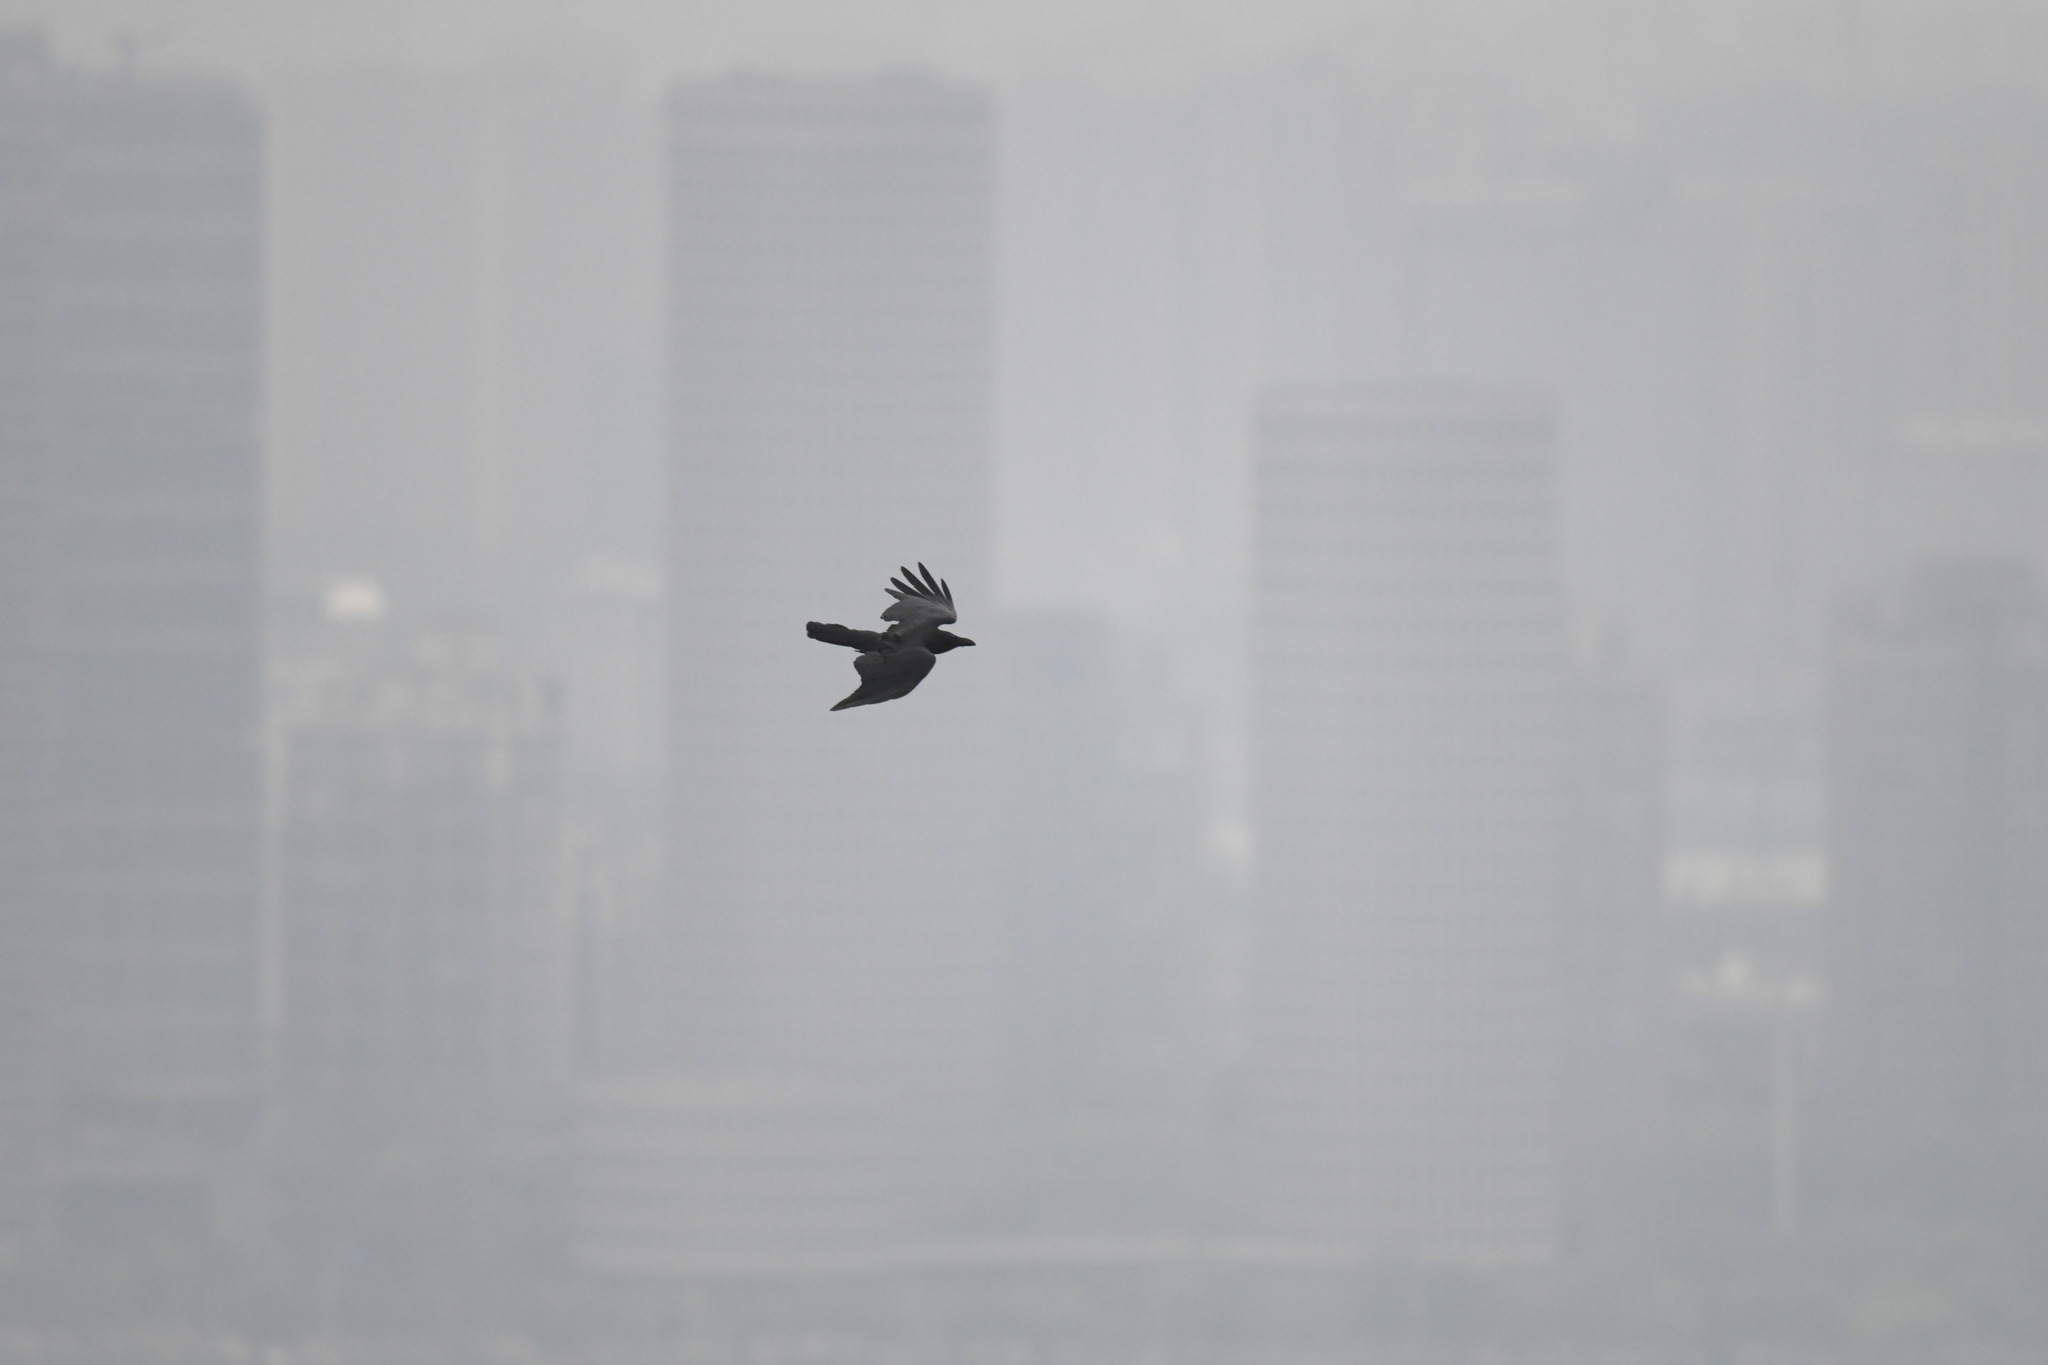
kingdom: Animalia
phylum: Chordata
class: Aves
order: Passeriformes
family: Corvidae
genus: Corvus
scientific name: Corvus macrorhynchos
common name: Large-billed crow
